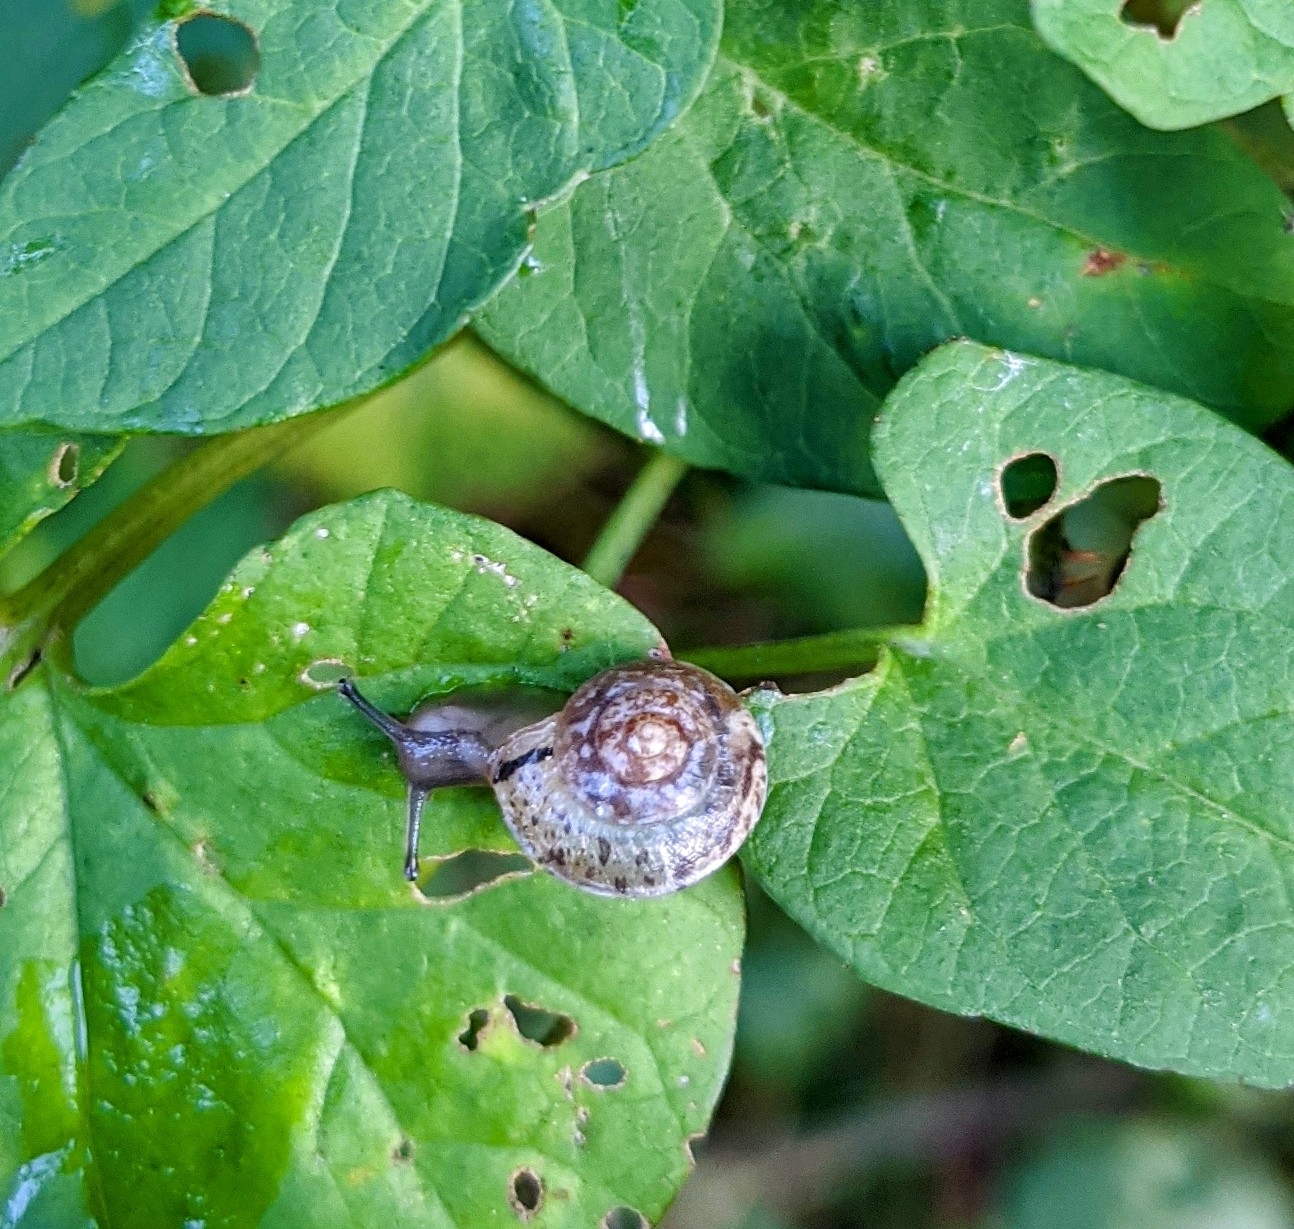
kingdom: Animalia
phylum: Mollusca
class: Gastropoda
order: Stylommatophora
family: Hygromiidae
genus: Hygromia
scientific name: Hygromia cinctella
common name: Girdled snail
